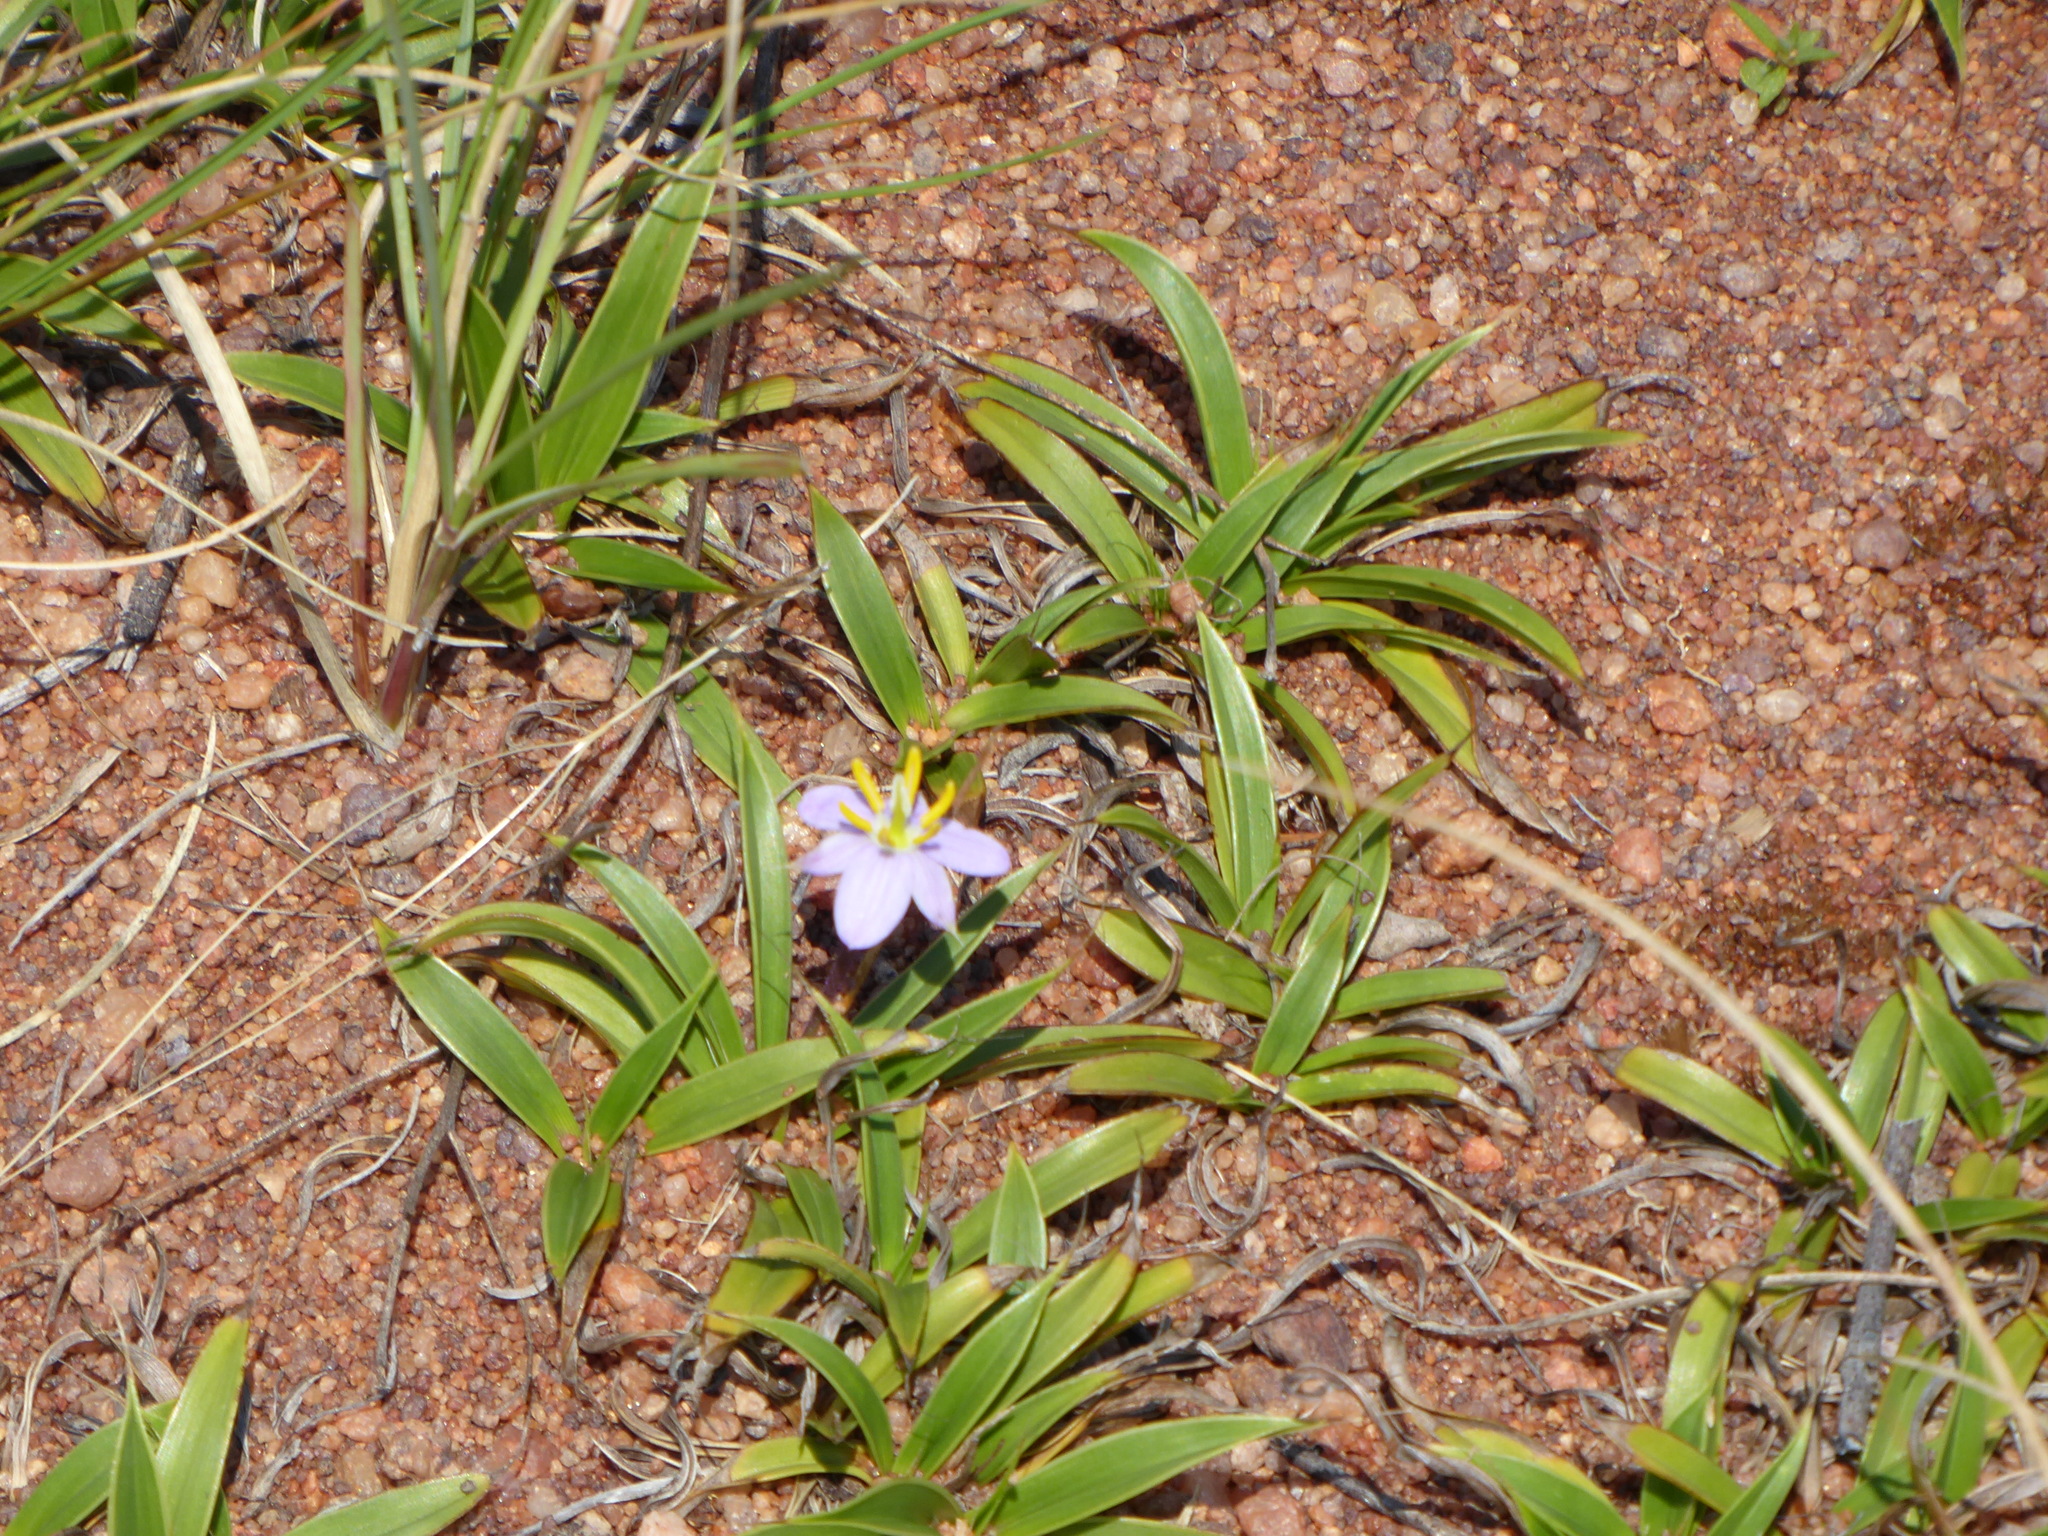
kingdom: Plantae
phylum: Tracheophyta
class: Liliopsida
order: Pandanales
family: Velloziaceae
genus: Xerophyta
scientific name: Xerophyta humilis
